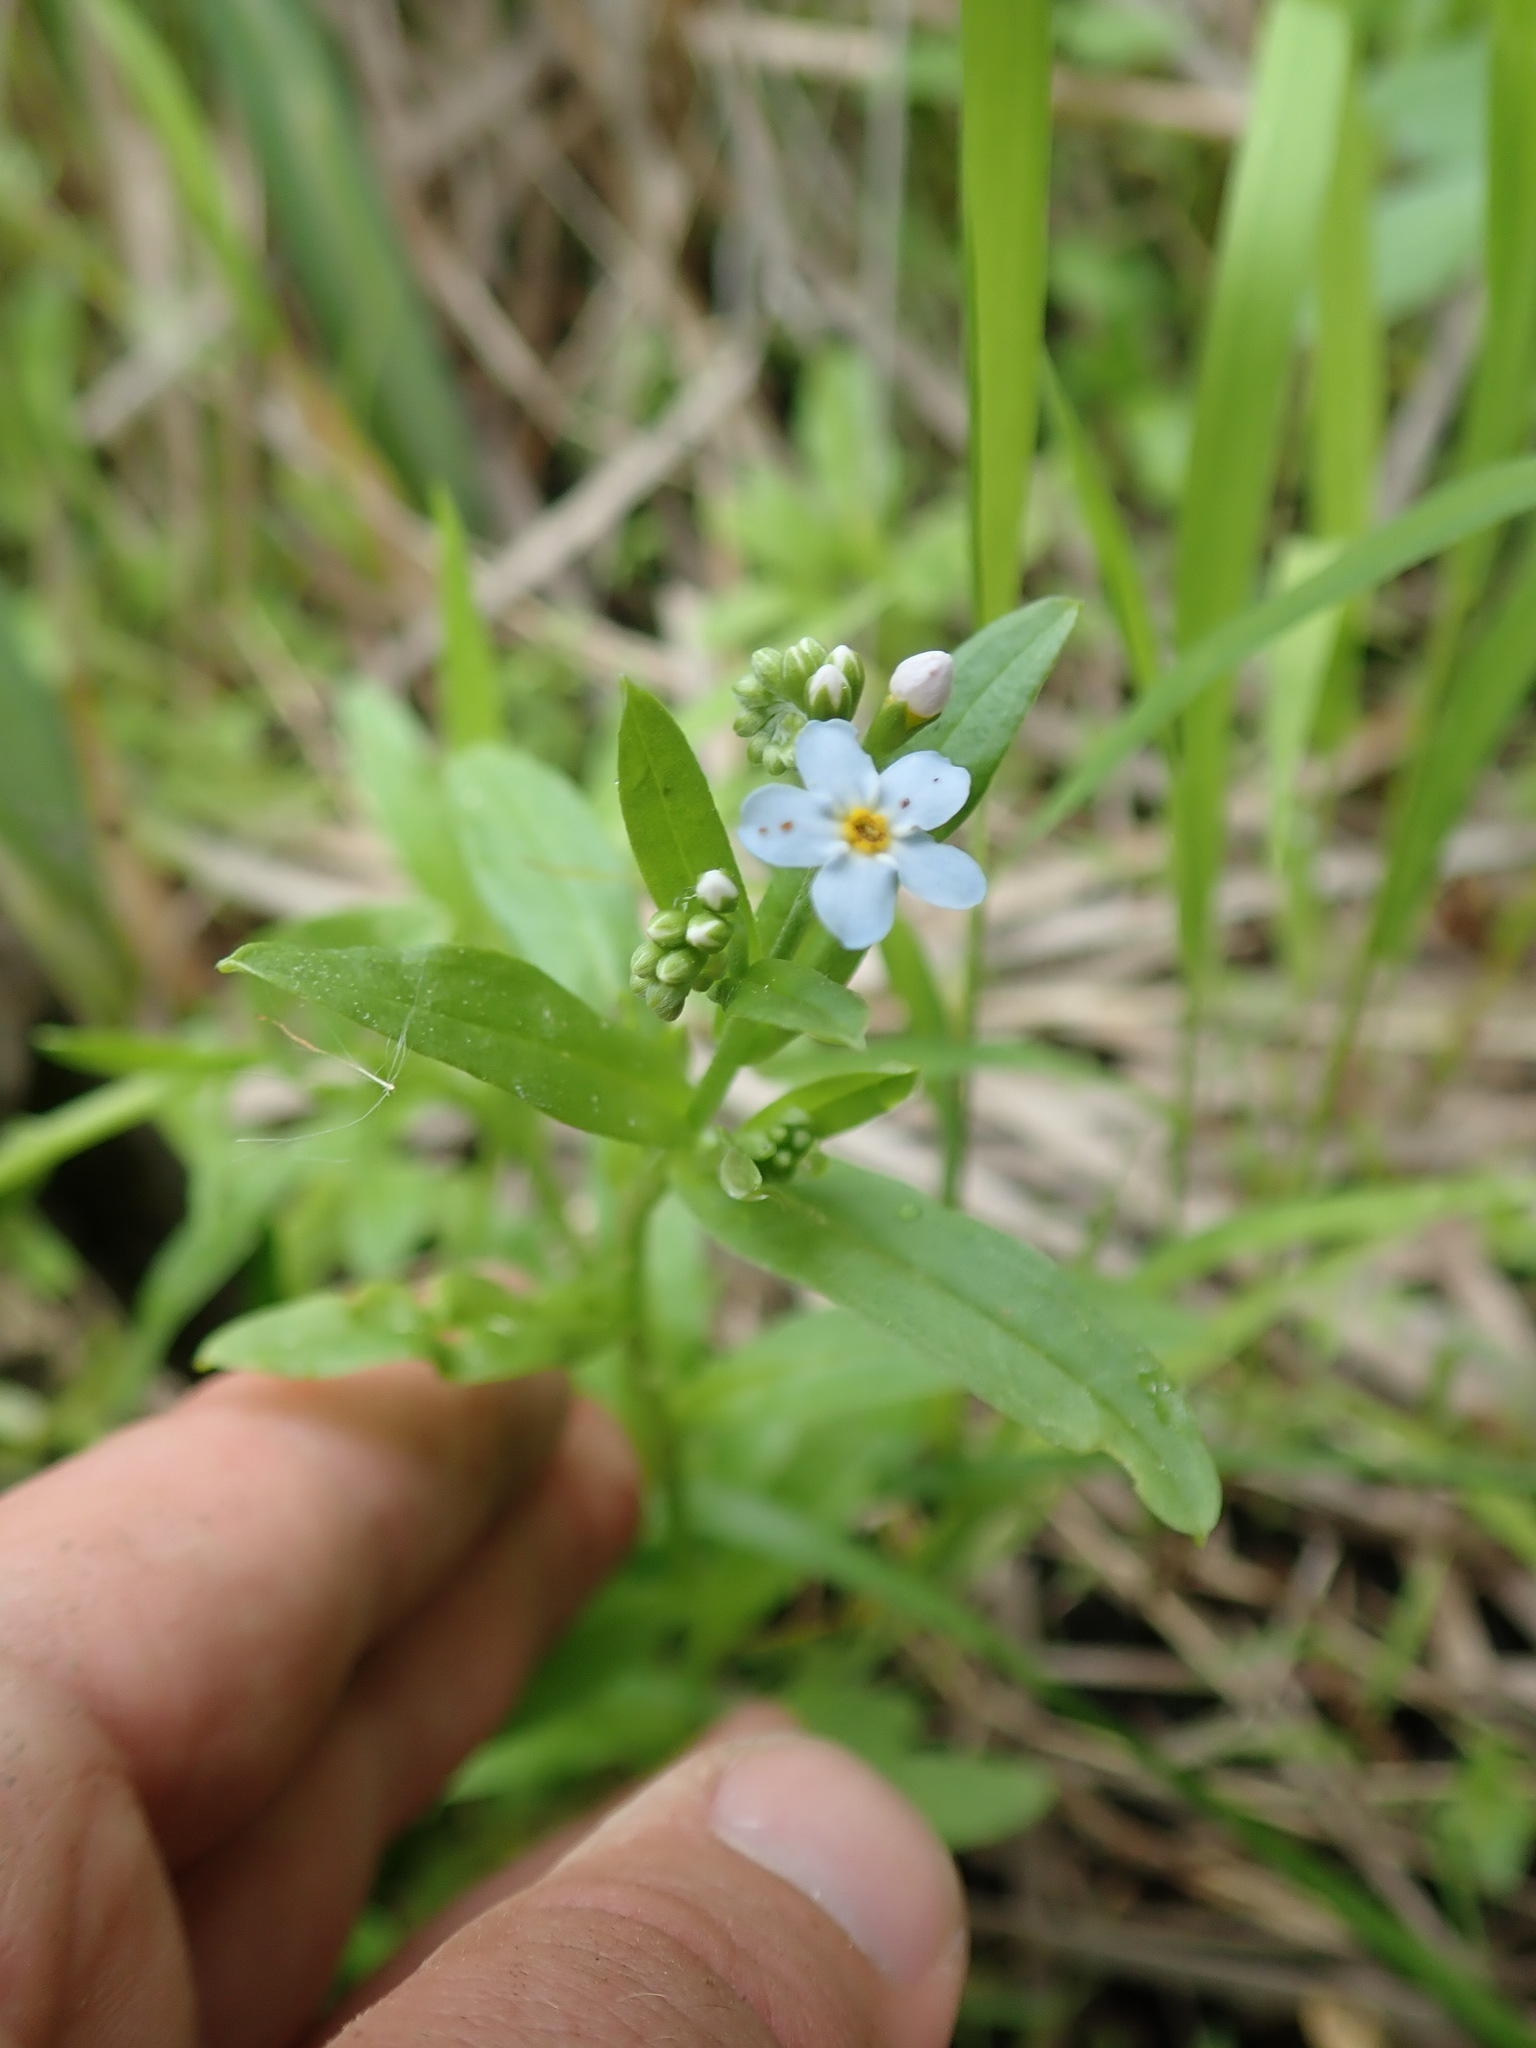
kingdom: Plantae
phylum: Tracheophyta
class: Magnoliopsida
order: Boraginales
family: Boraginaceae
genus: Myosotis
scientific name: Myosotis scorpioides
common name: Water forget-me-not
